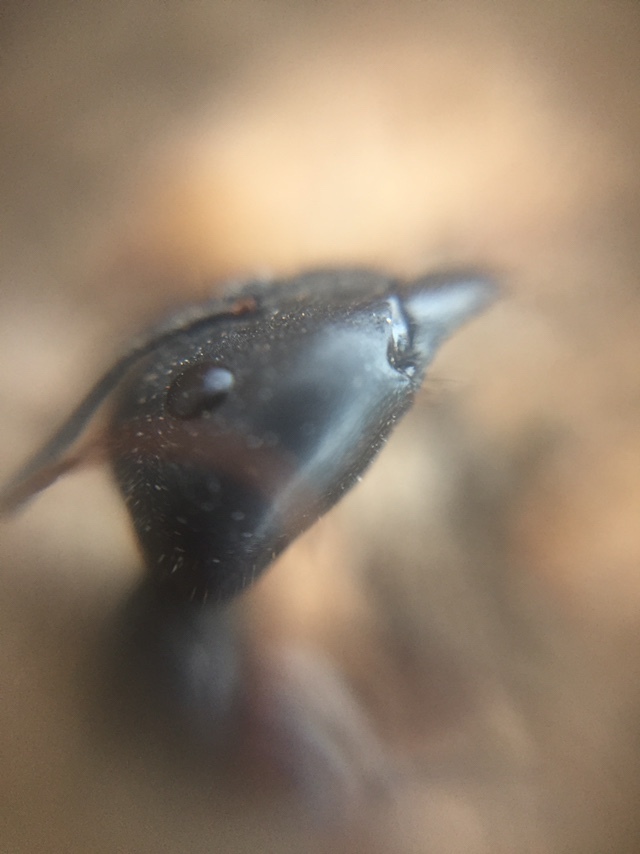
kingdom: Animalia
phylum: Arthropoda
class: Insecta
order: Hymenoptera
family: Formicidae
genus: Camponotus
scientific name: Camponotus compressus
